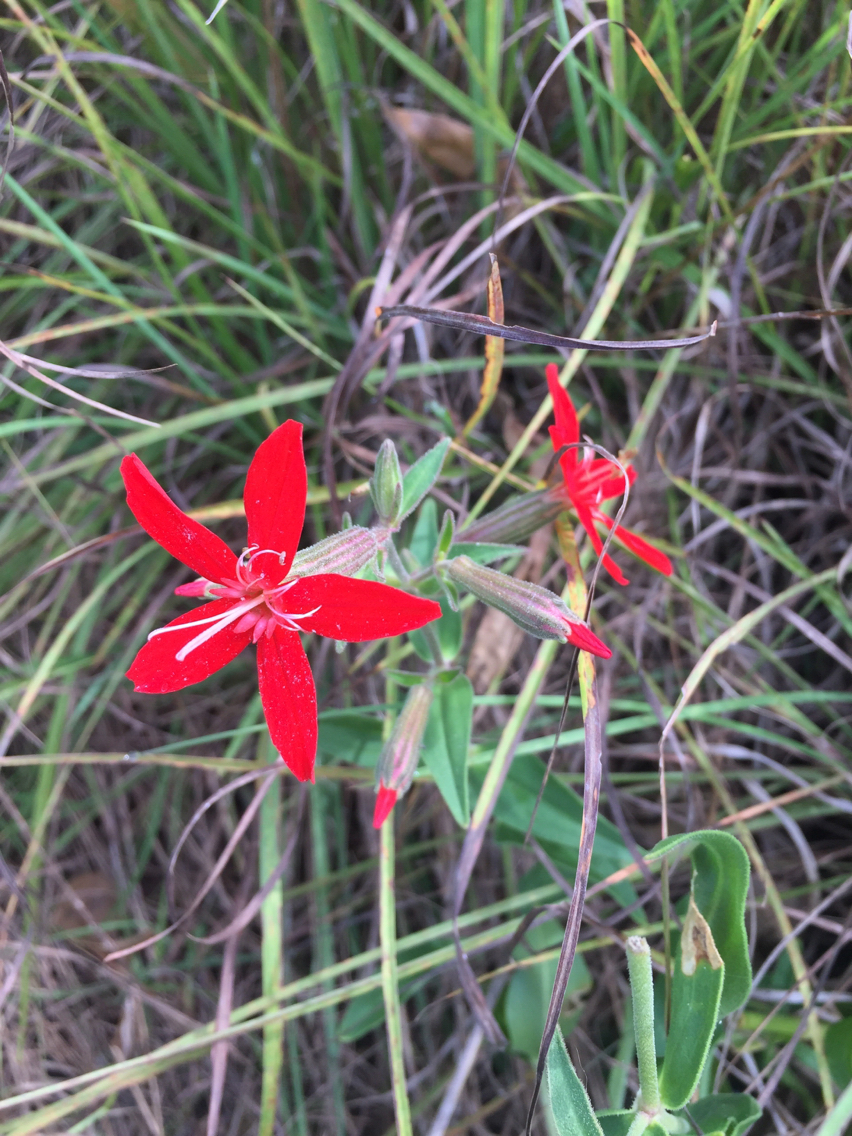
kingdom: Plantae
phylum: Tracheophyta
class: Magnoliopsida
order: Caryophyllales
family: Caryophyllaceae
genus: Silene
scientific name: Silene regia
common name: Royal catchfly
